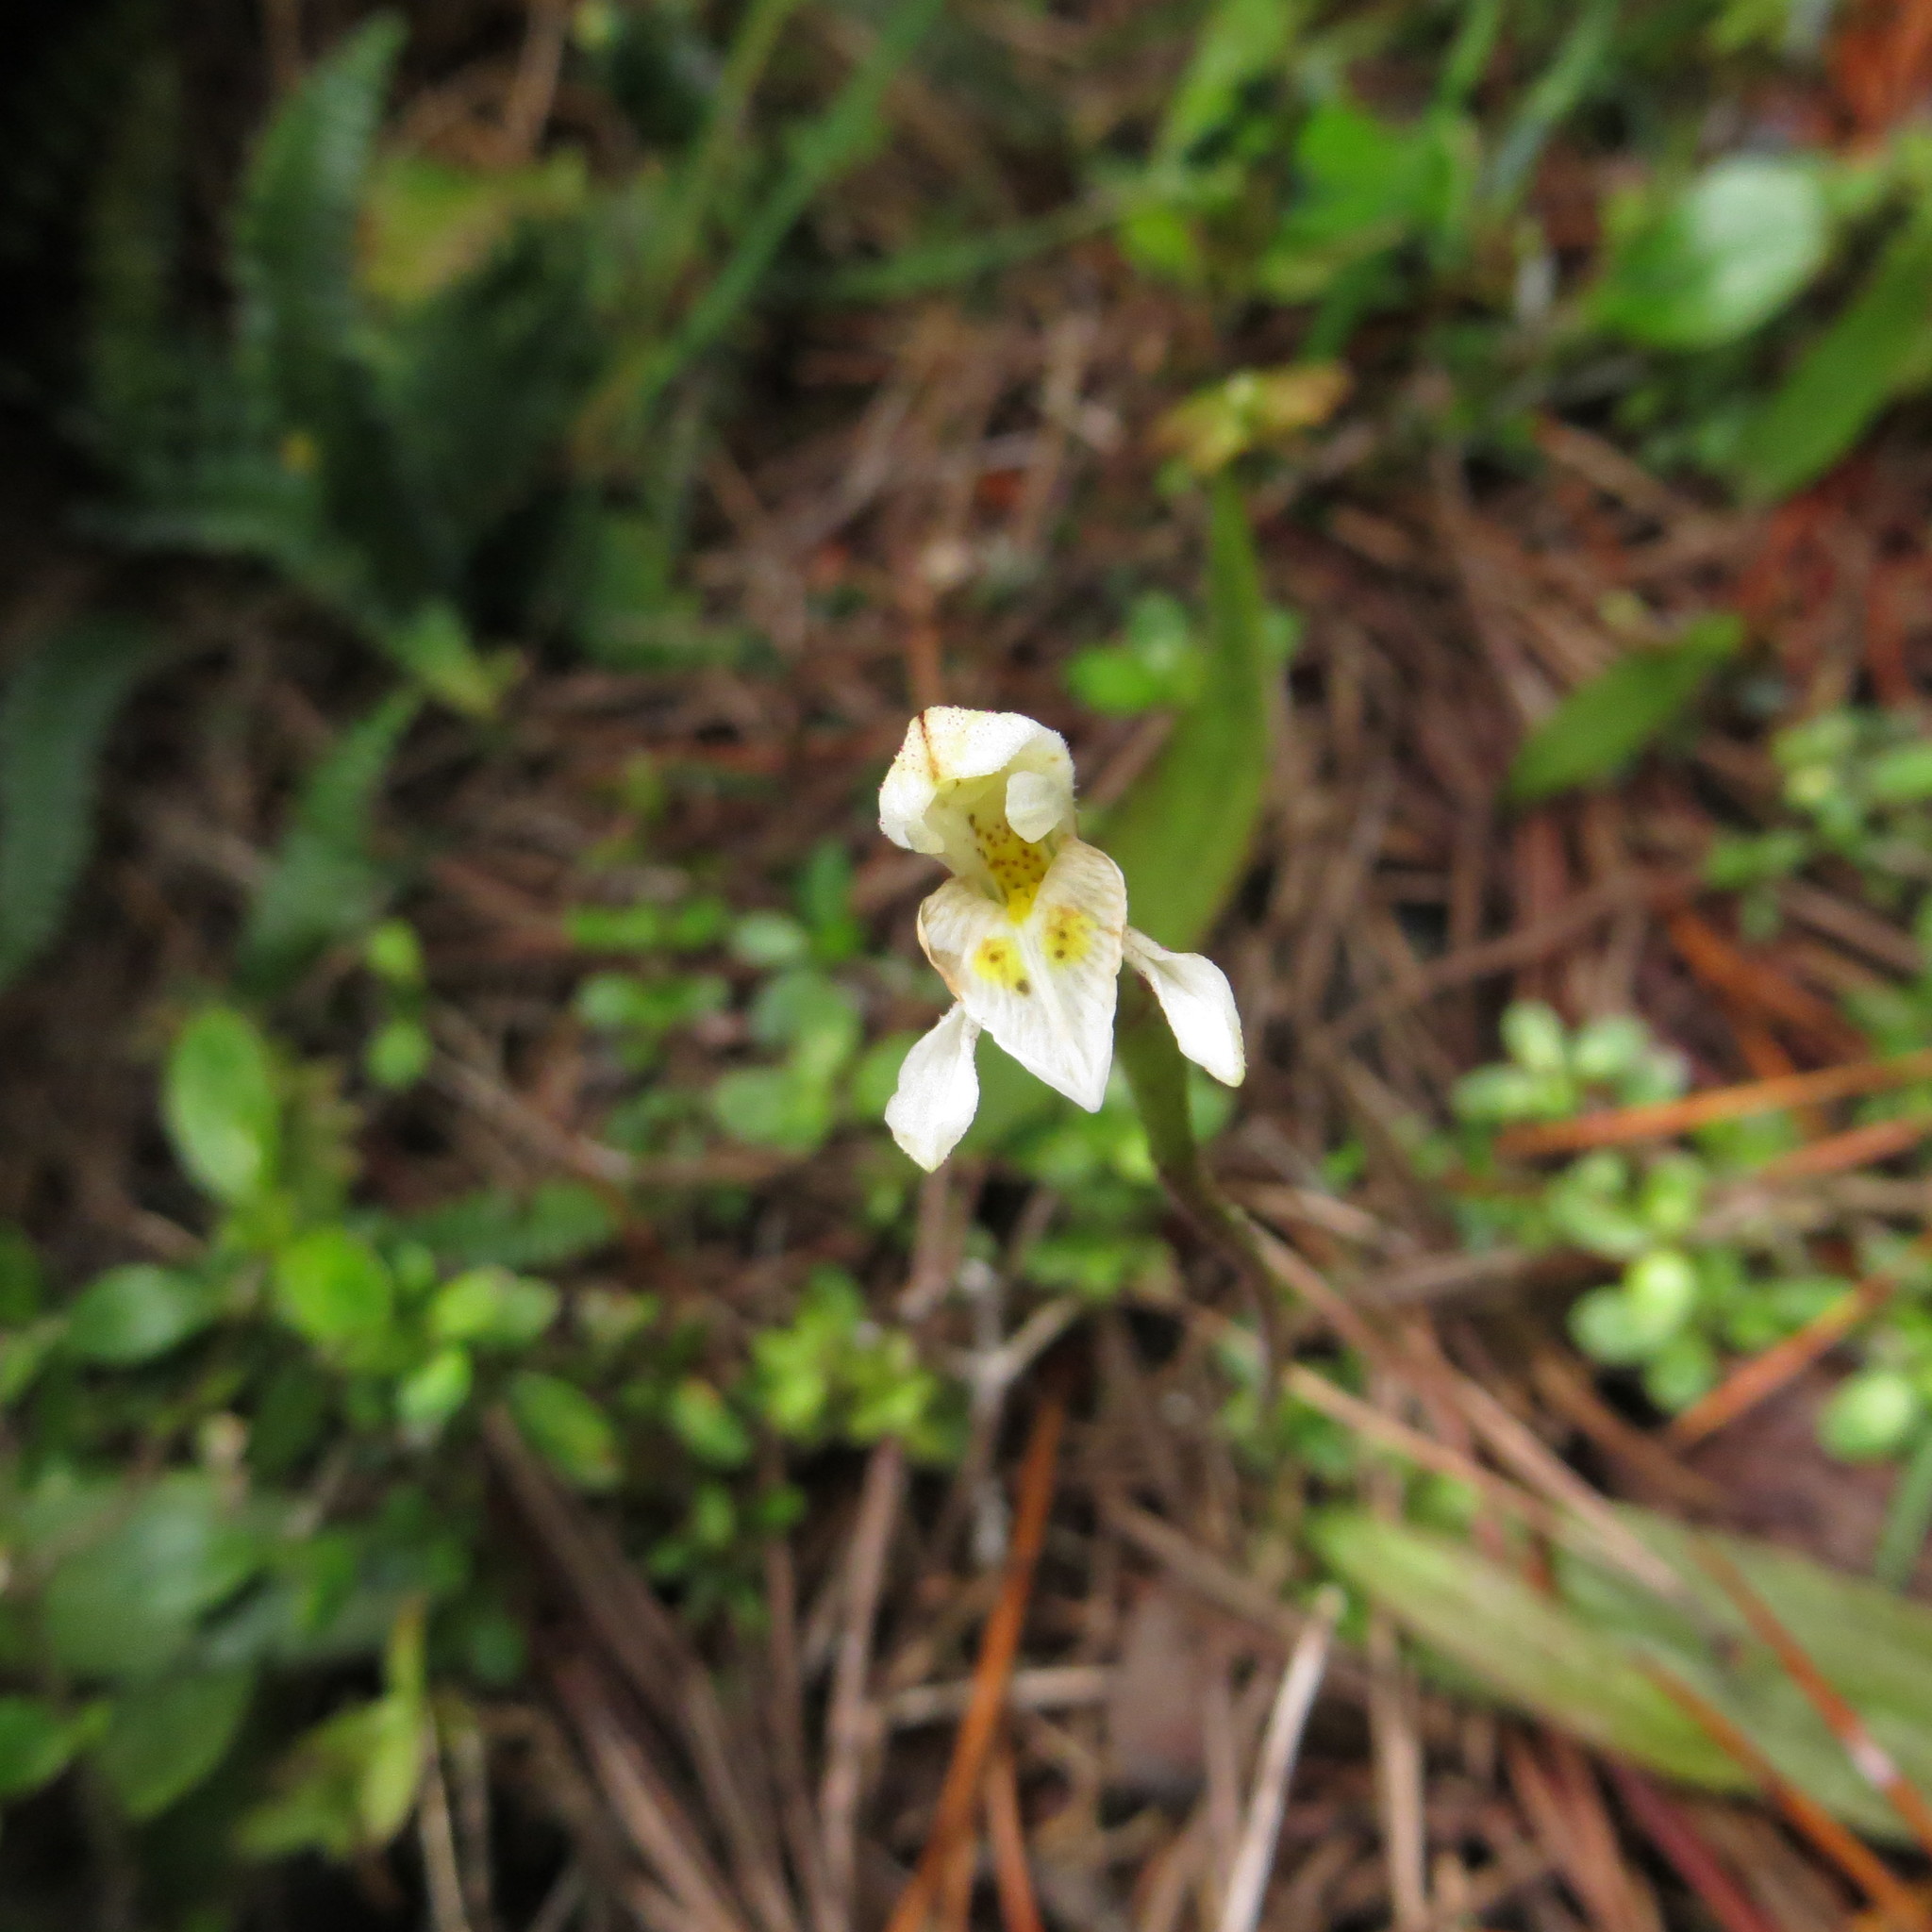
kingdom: Plantae
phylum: Tracheophyta
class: Liliopsida
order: Asparagales
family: Orchidaceae
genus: Aporostylis
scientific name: Aporostylis bifolia
